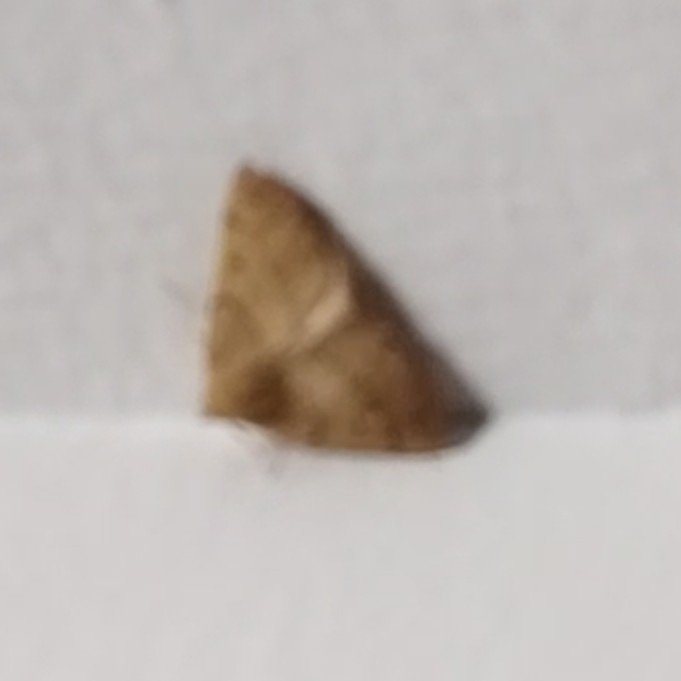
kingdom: Animalia
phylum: Arthropoda
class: Insecta
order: Lepidoptera
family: Geometridae
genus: Colotois
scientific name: Colotois pennaria
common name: Feathered thorn
